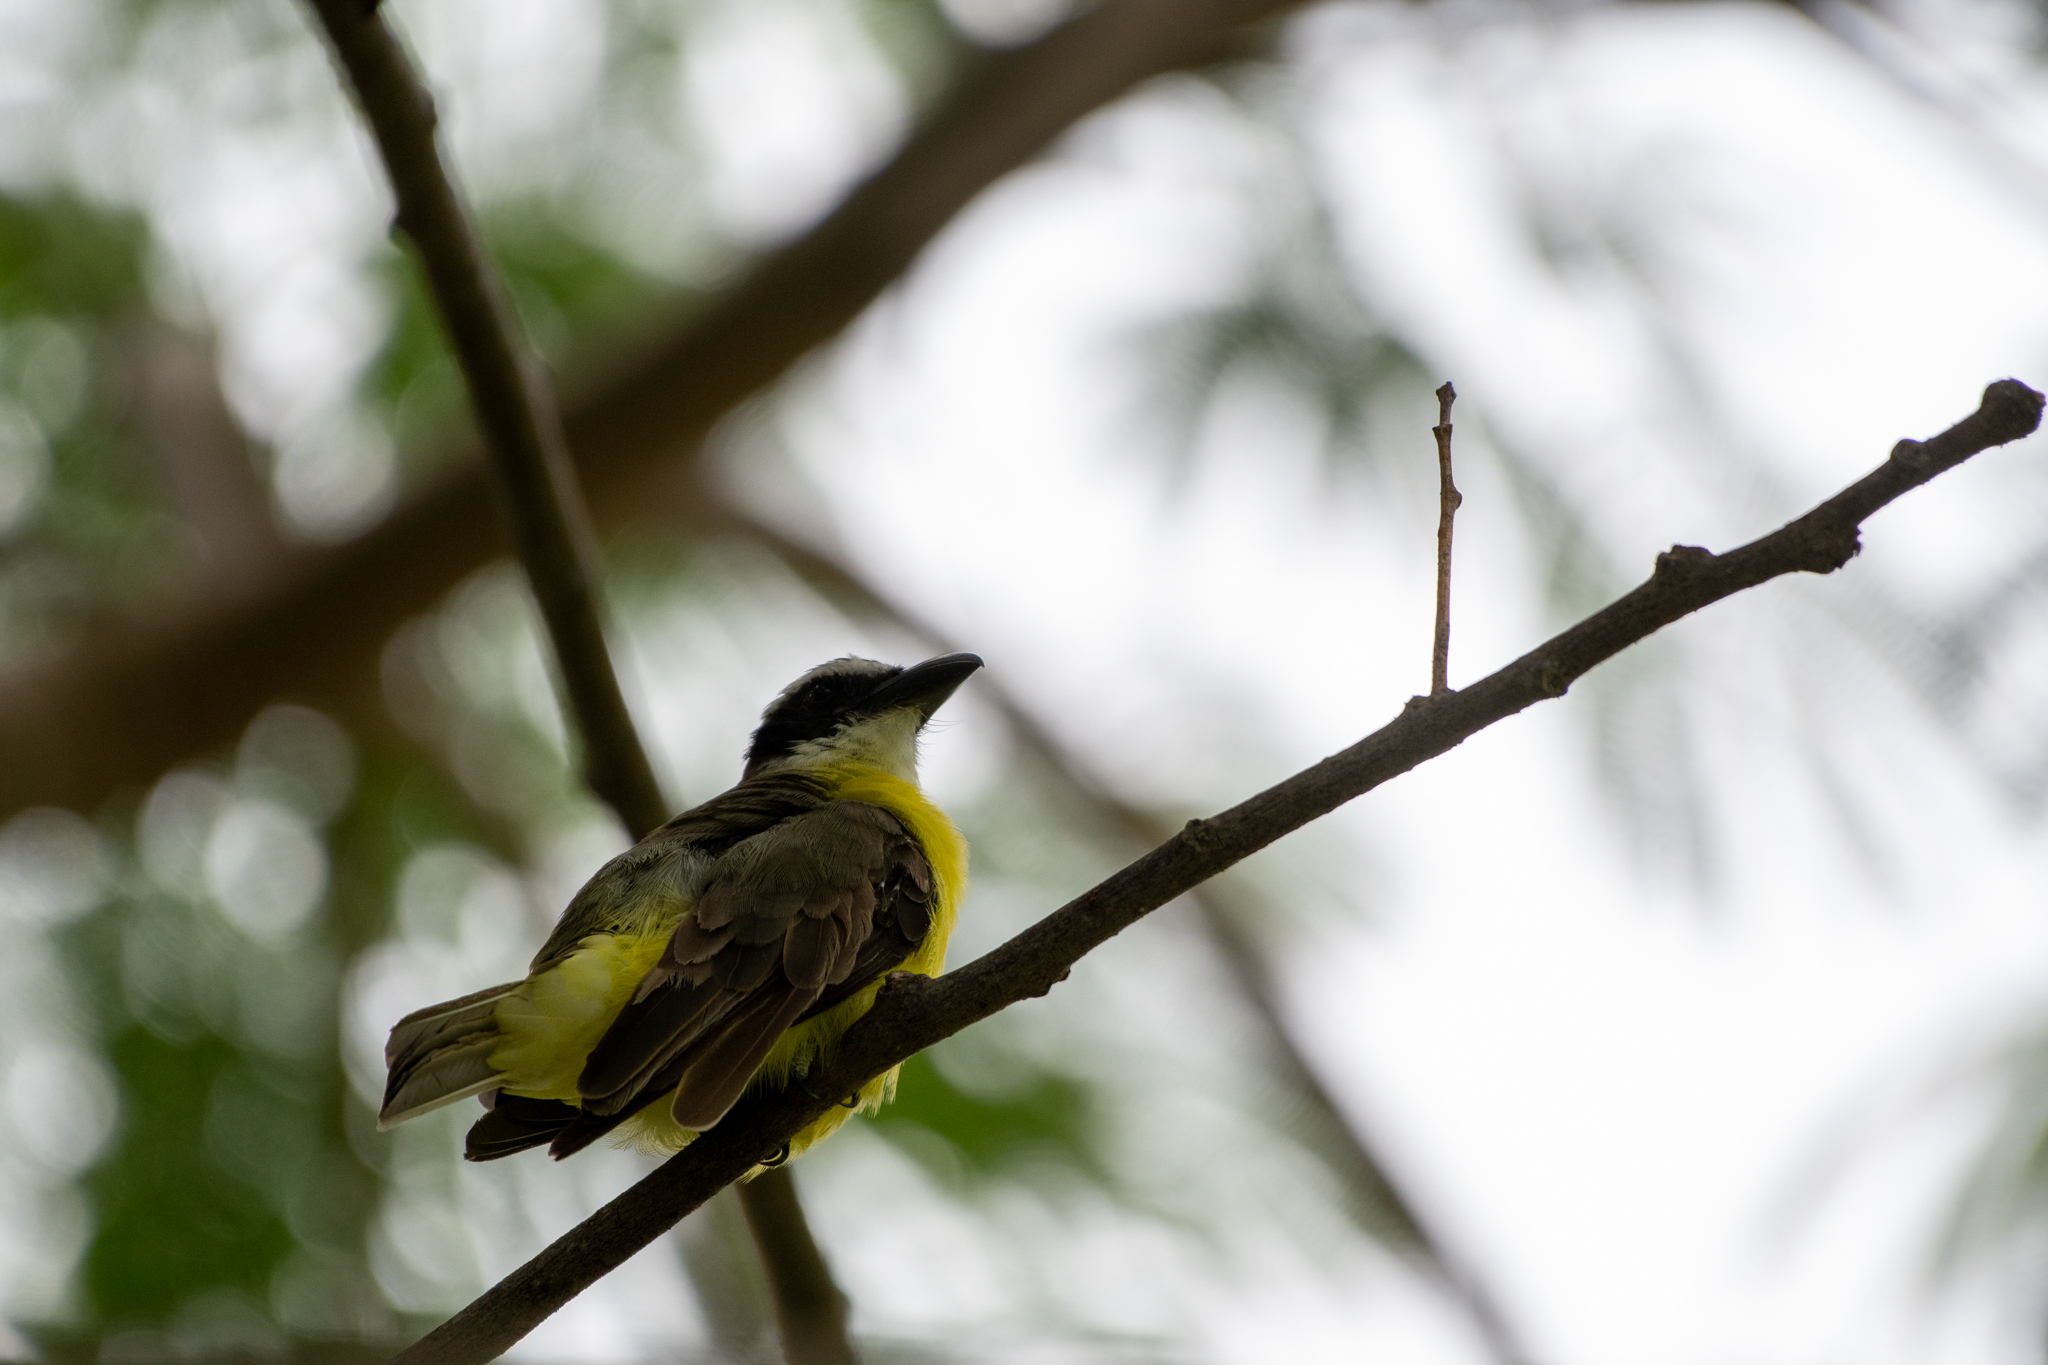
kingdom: Animalia
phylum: Chordata
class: Aves
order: Passeriformes
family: Tyrannidae
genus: Megarynchus
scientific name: Megarynchus pitangua
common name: Boat-billed flycatcher
